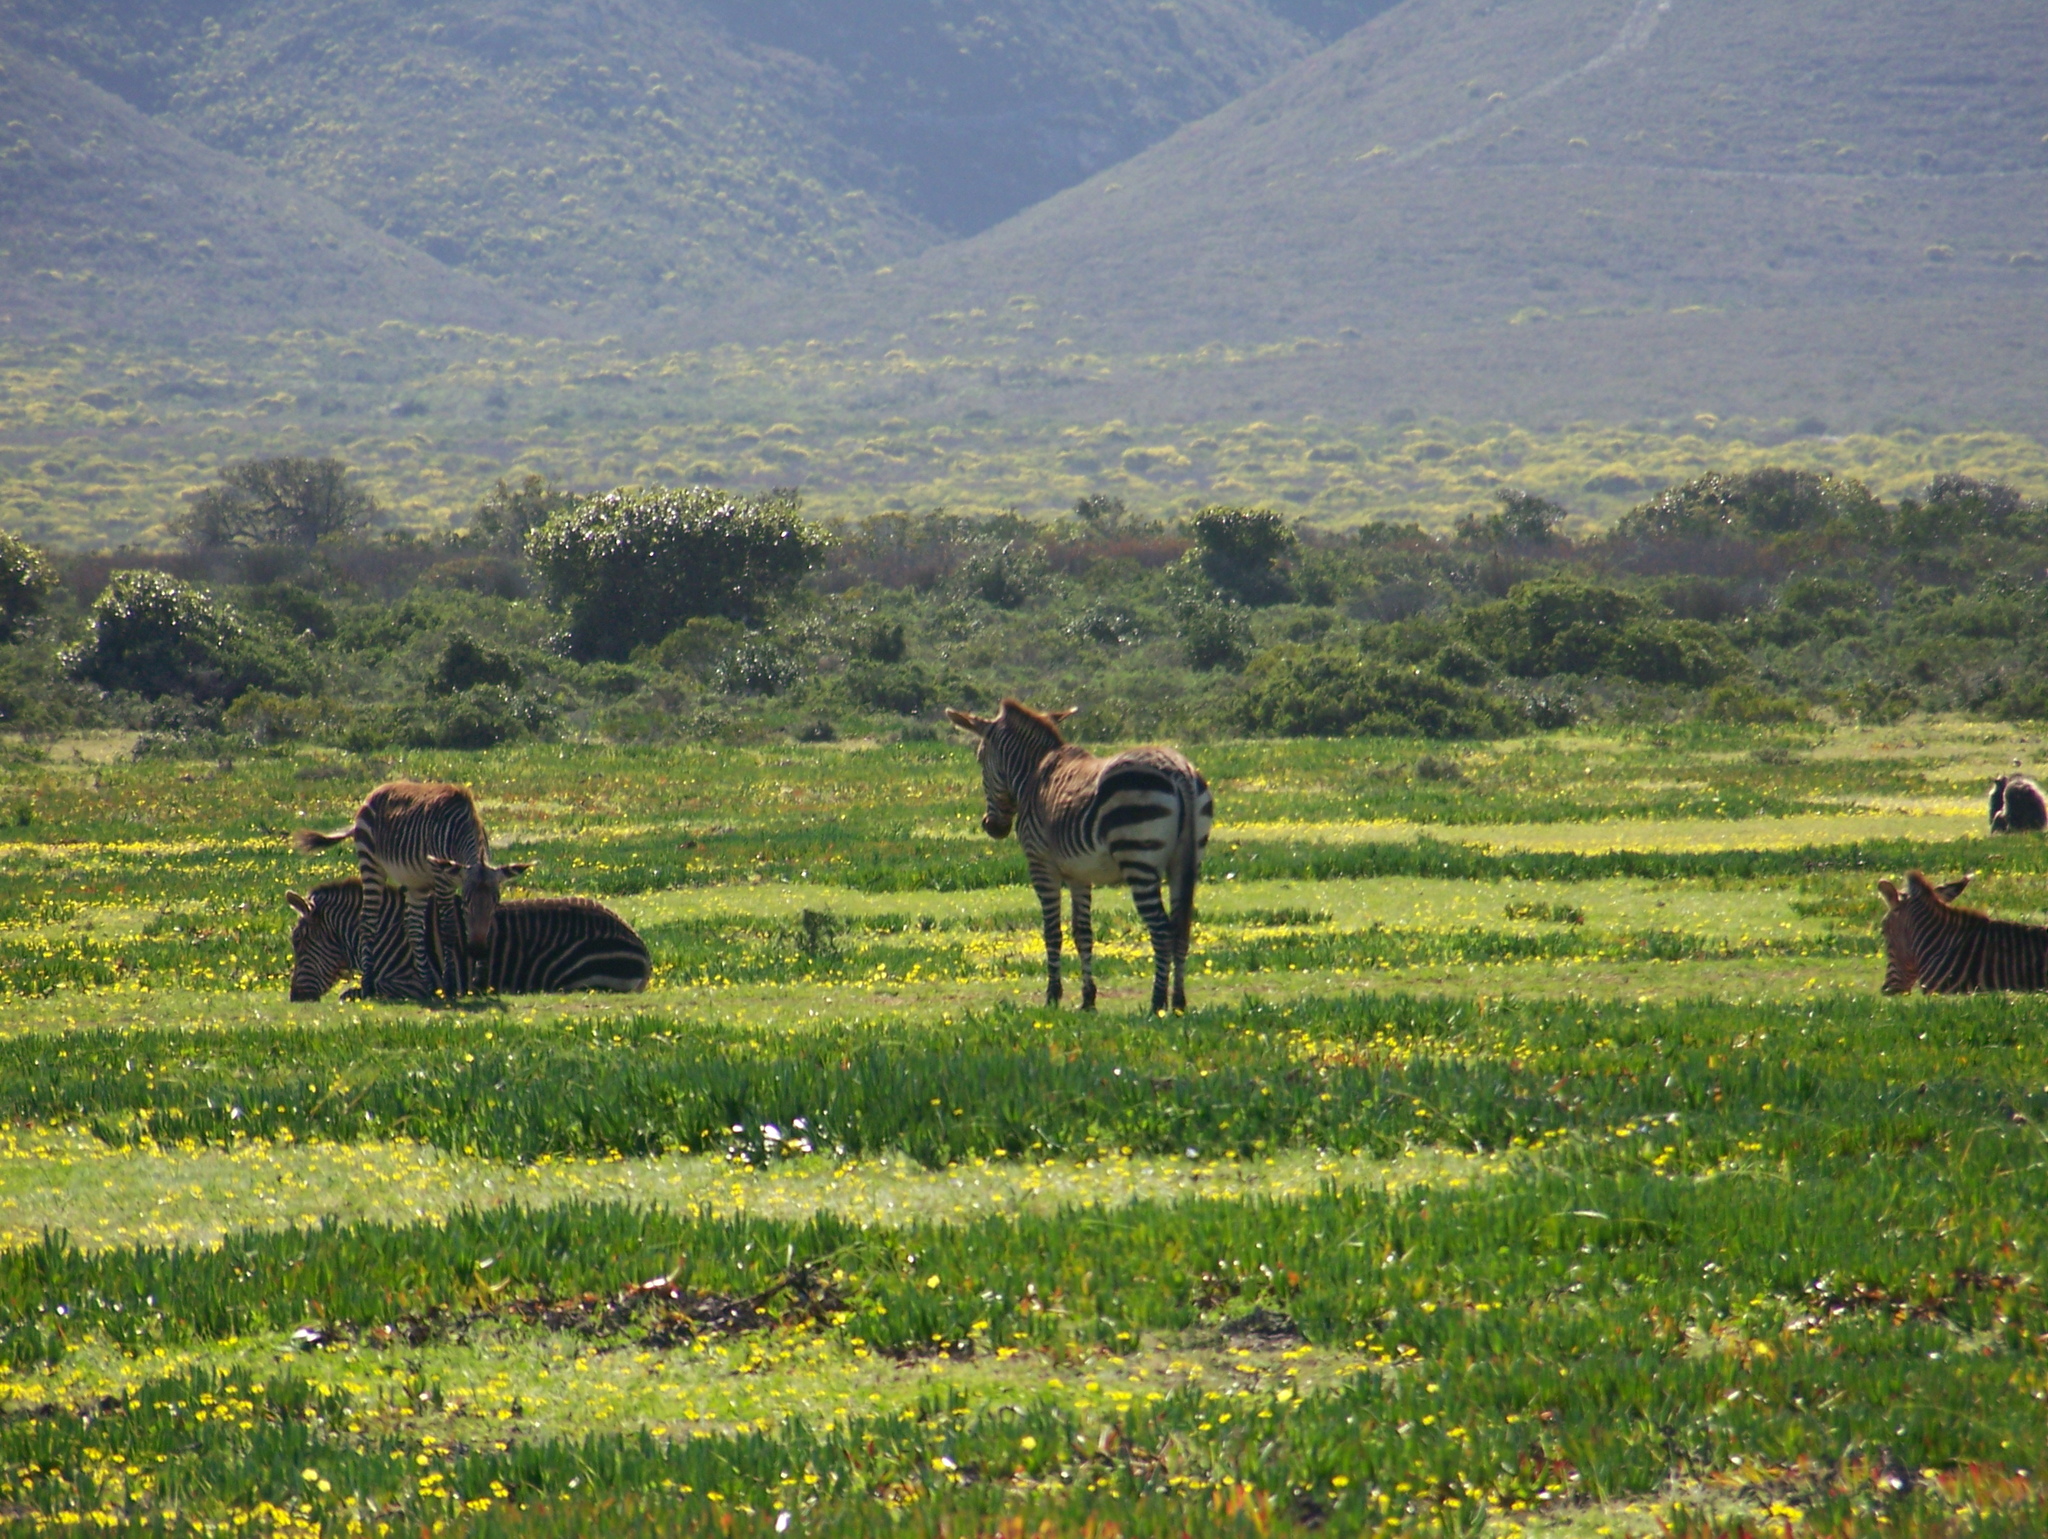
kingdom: Animalia
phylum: Chordata
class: Mammalia
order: Perissodactyla
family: Equidae
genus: Equus
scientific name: Equus zebra
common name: Mountain zebra
